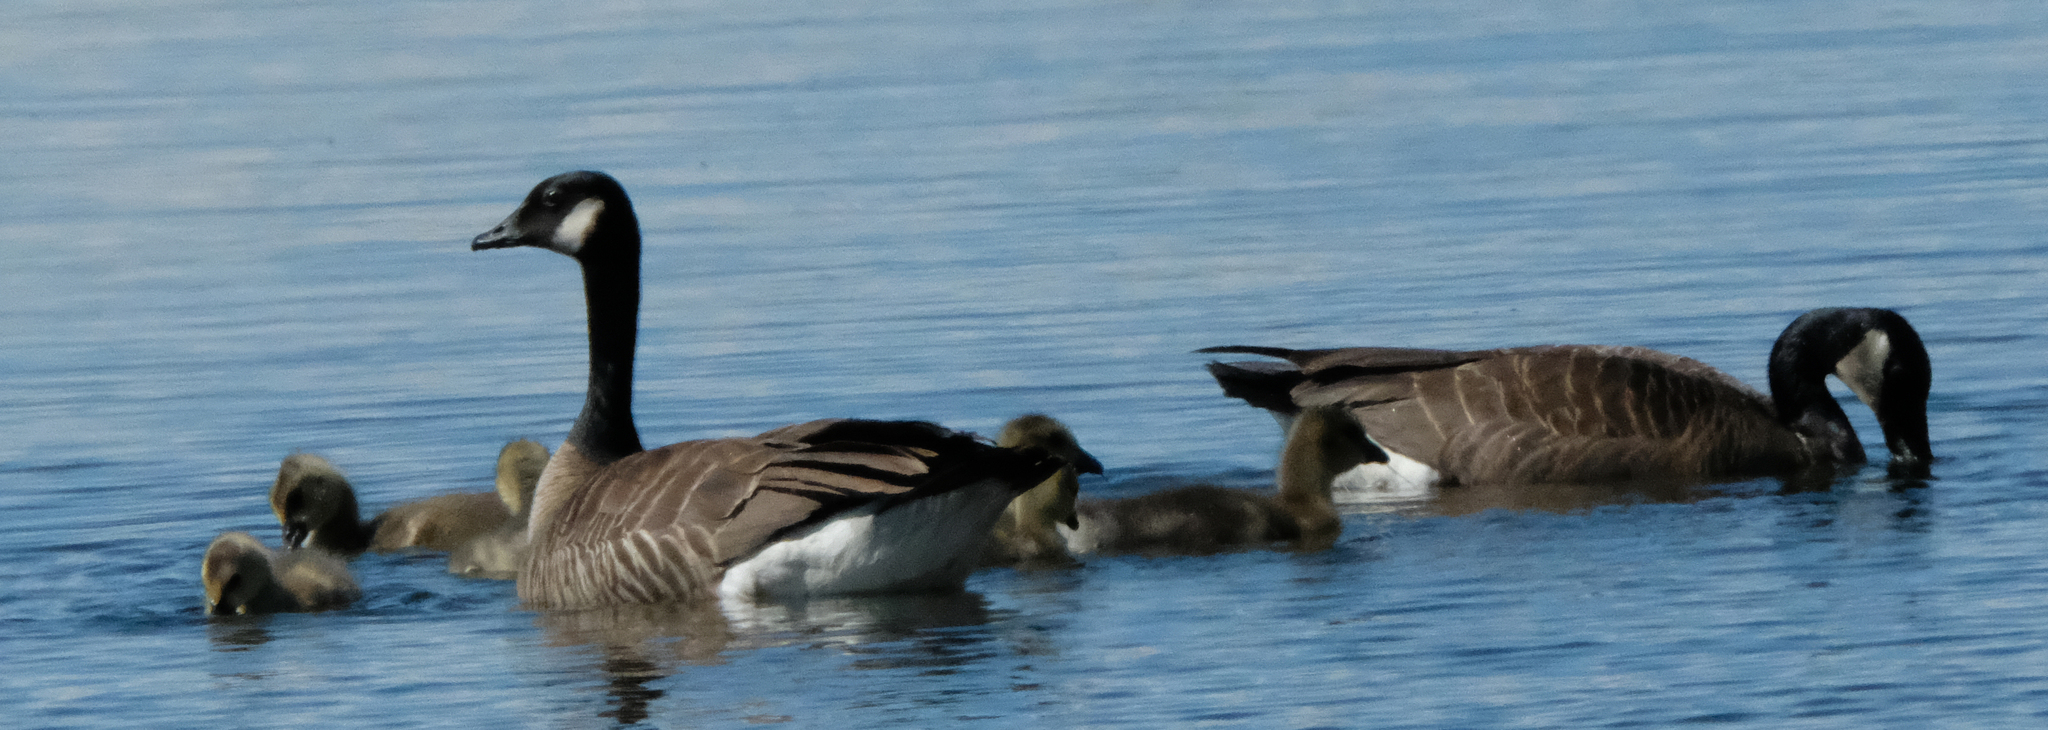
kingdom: Animalia
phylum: Chordata
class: Aves
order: Anseriformes
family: Anatidae
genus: Branta
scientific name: Branta canadensis
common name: Canada goose
